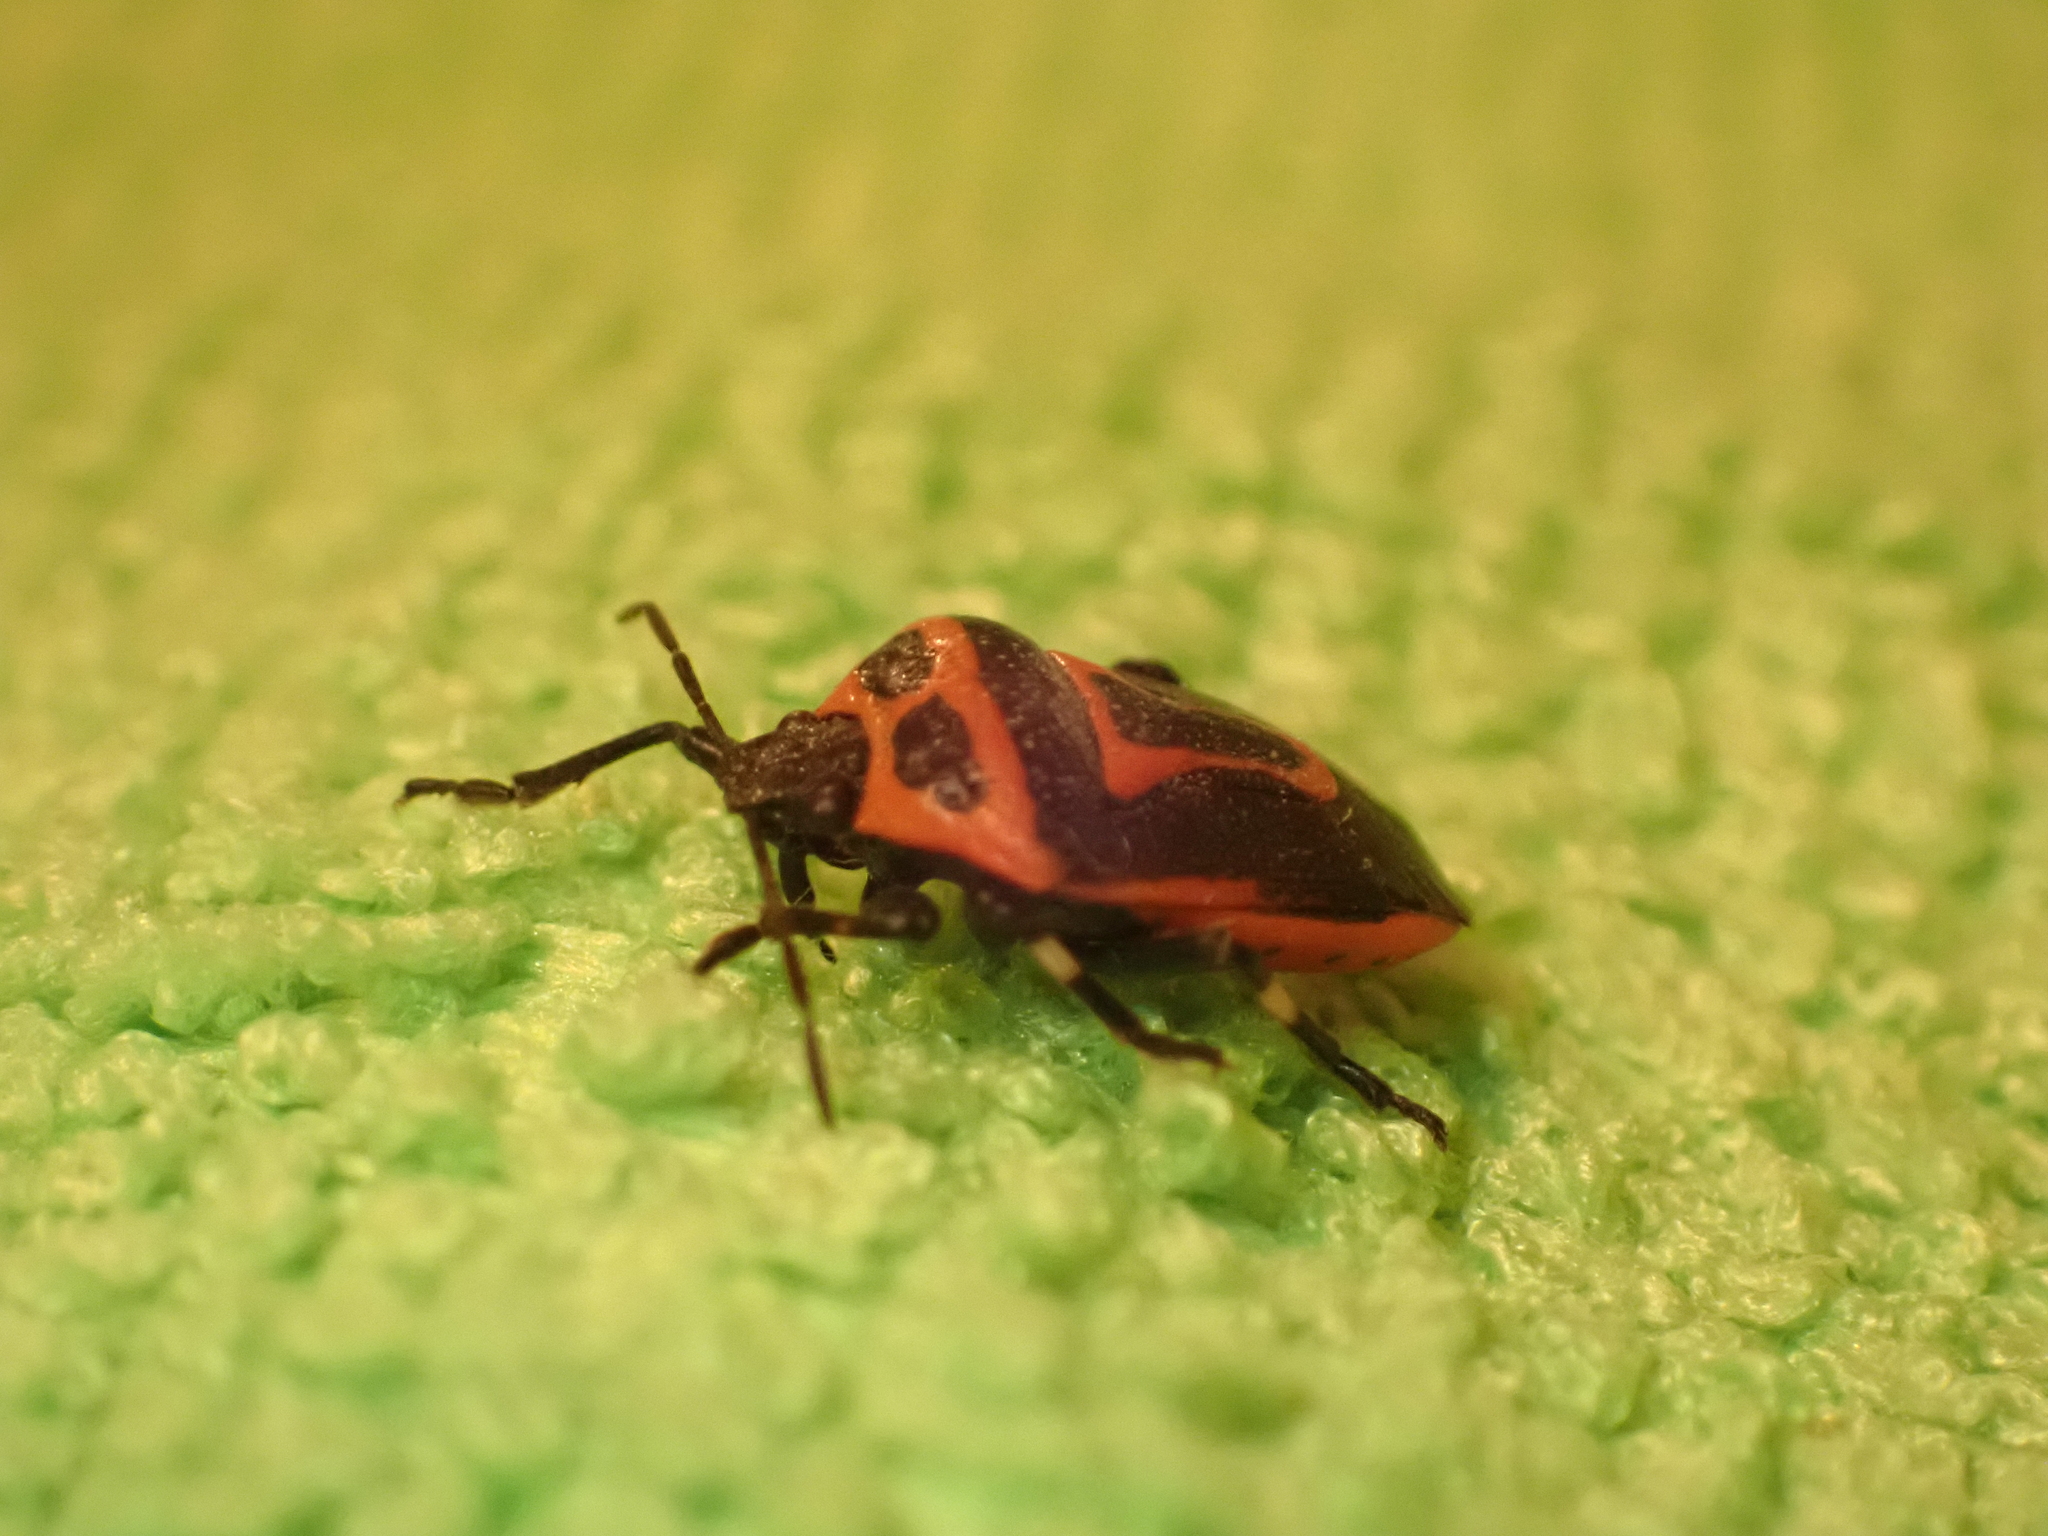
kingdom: Animalia
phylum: Arthropoda
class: Insecta
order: Hemiptera
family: Pentatomidae
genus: Perillus
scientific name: Perillus bioculatus
